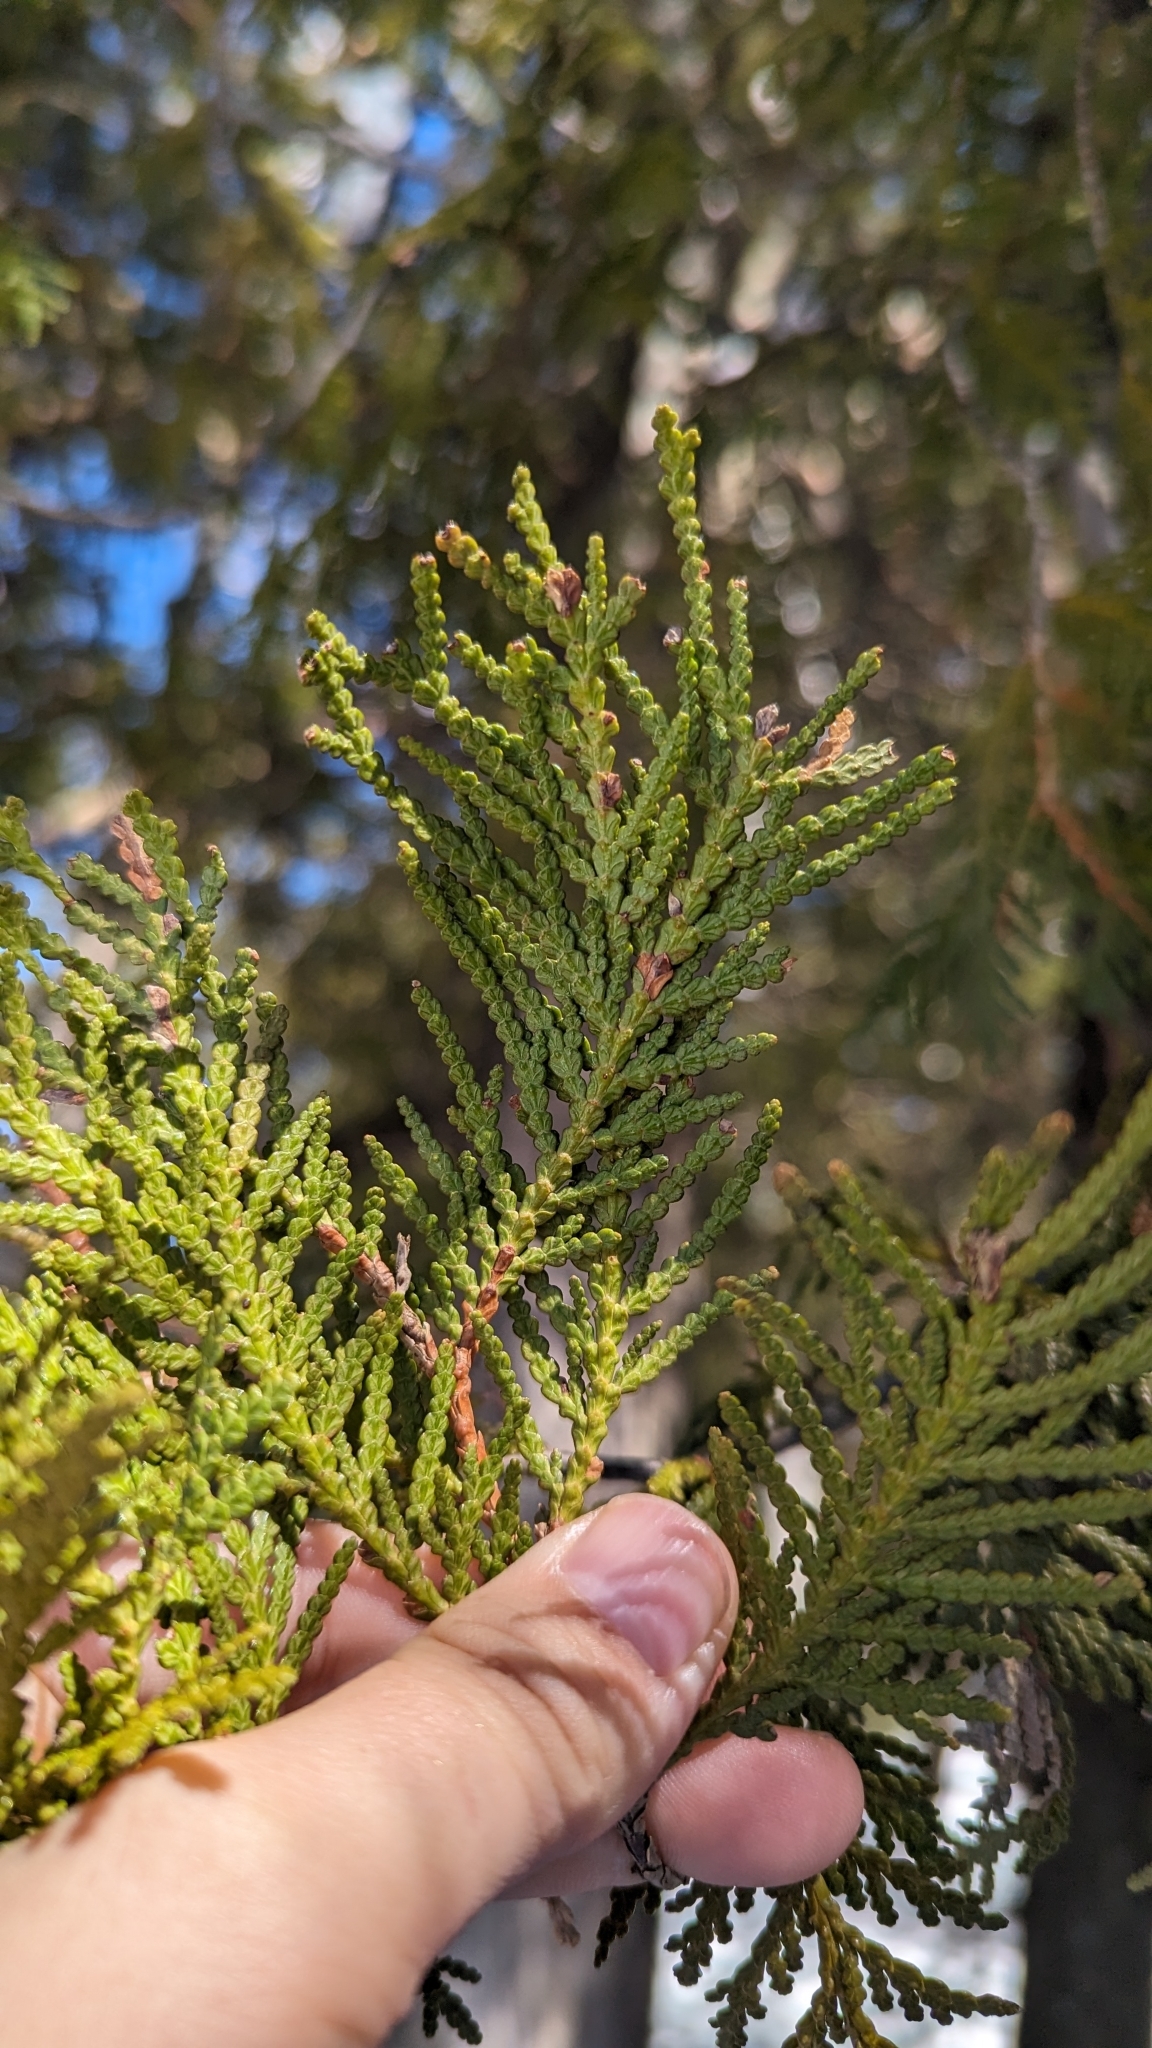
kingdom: Plantae
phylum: Tracheophyta
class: Pinopsida
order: Pinales
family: Cupressaceae
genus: Thuja
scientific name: Thuja occidentalis
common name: Northern white-cedar
